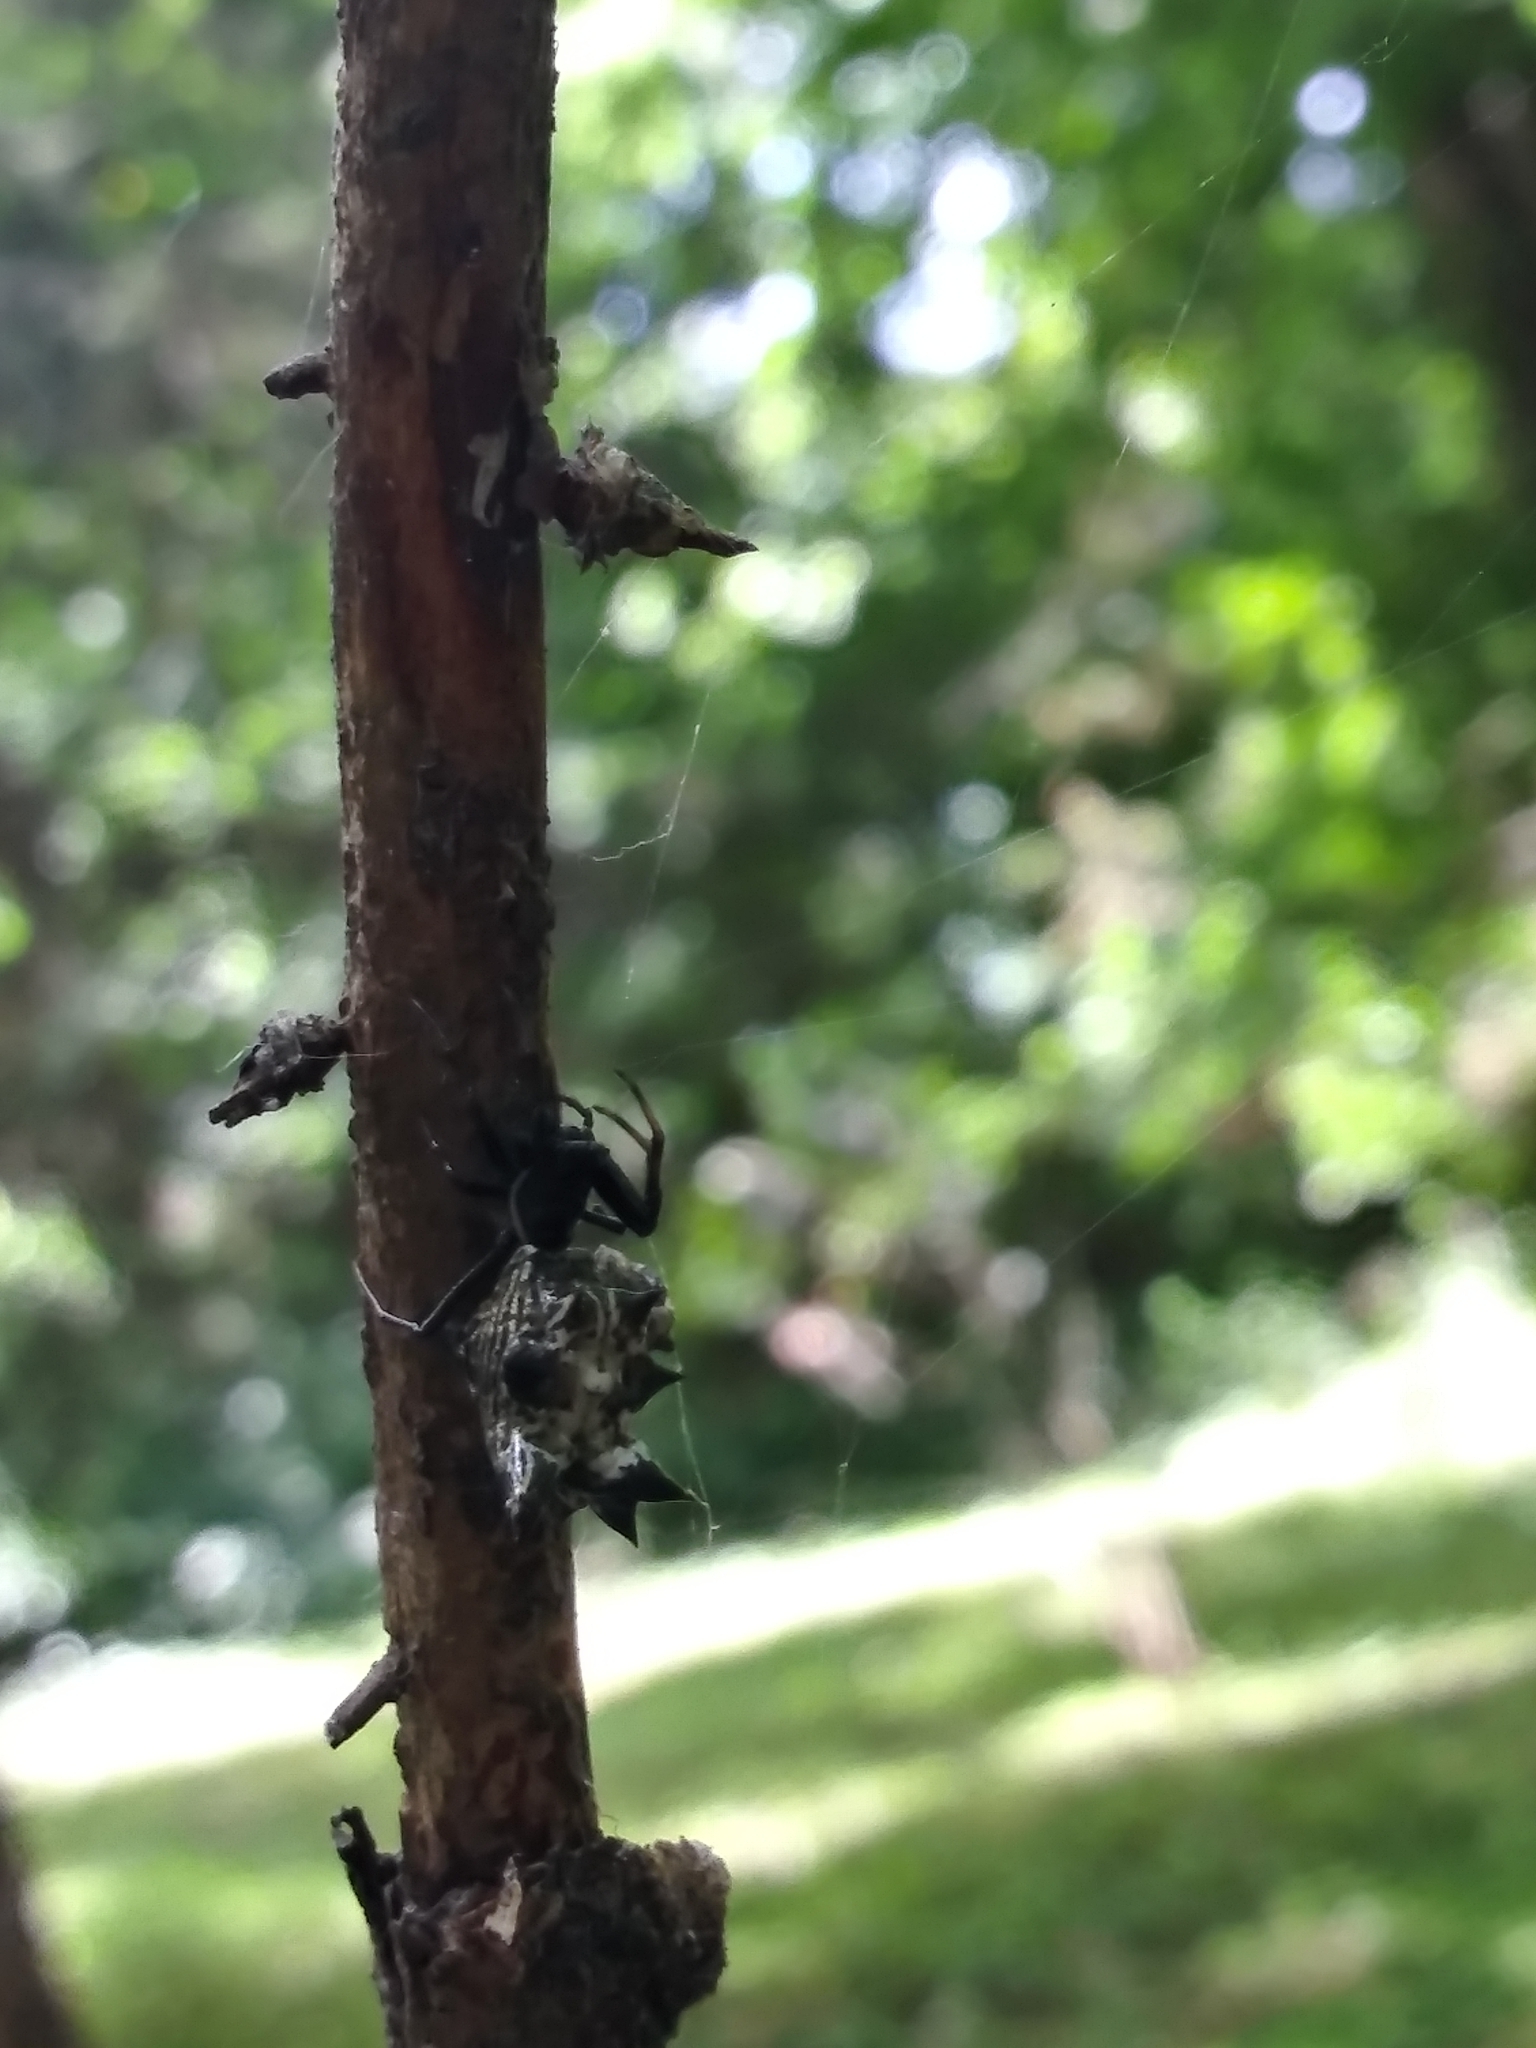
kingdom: Animalia
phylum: Arthropoda
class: Arachnida
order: Araneae
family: Araneidae
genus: Micrathena
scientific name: Micrathena gracilis
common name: Orb weavers
